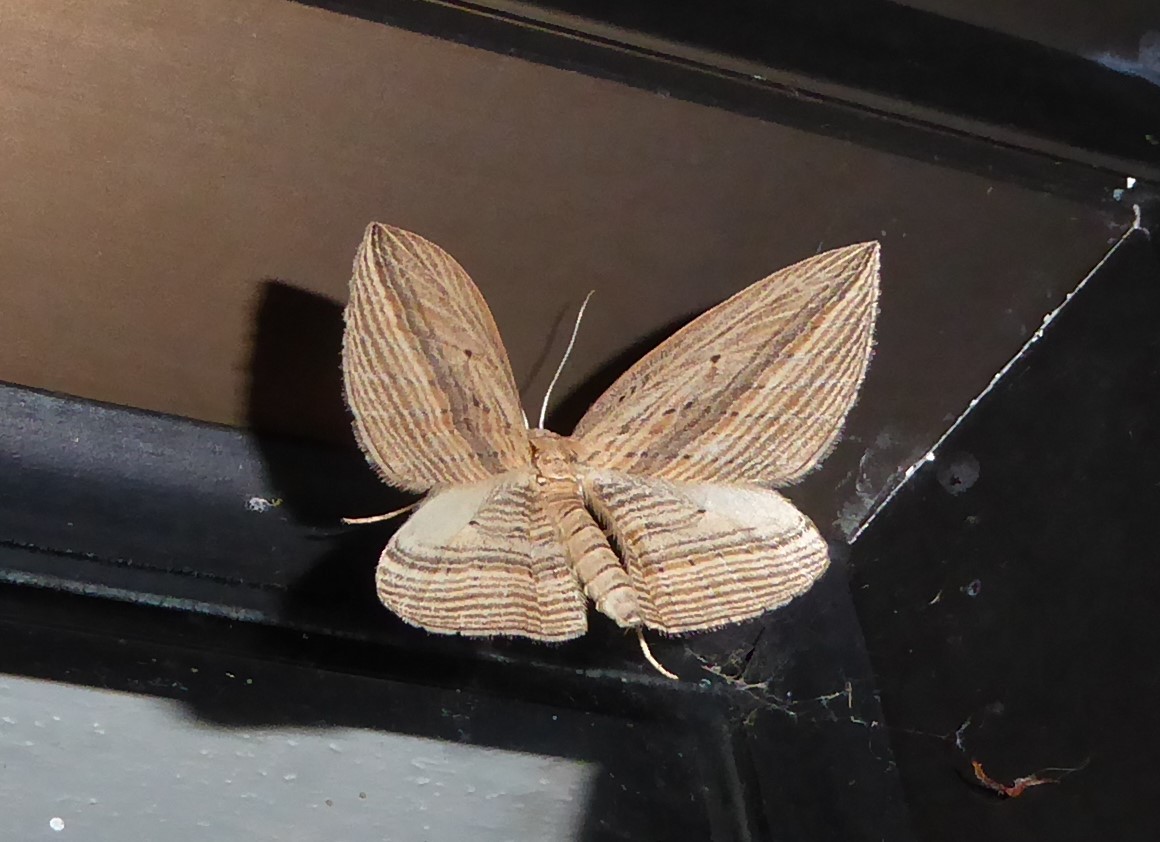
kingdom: Animalia
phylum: Arthropoda
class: Insecta
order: Lepidoptera
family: Geometridae
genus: Epiphryne
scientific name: Epiphryne verriculata
